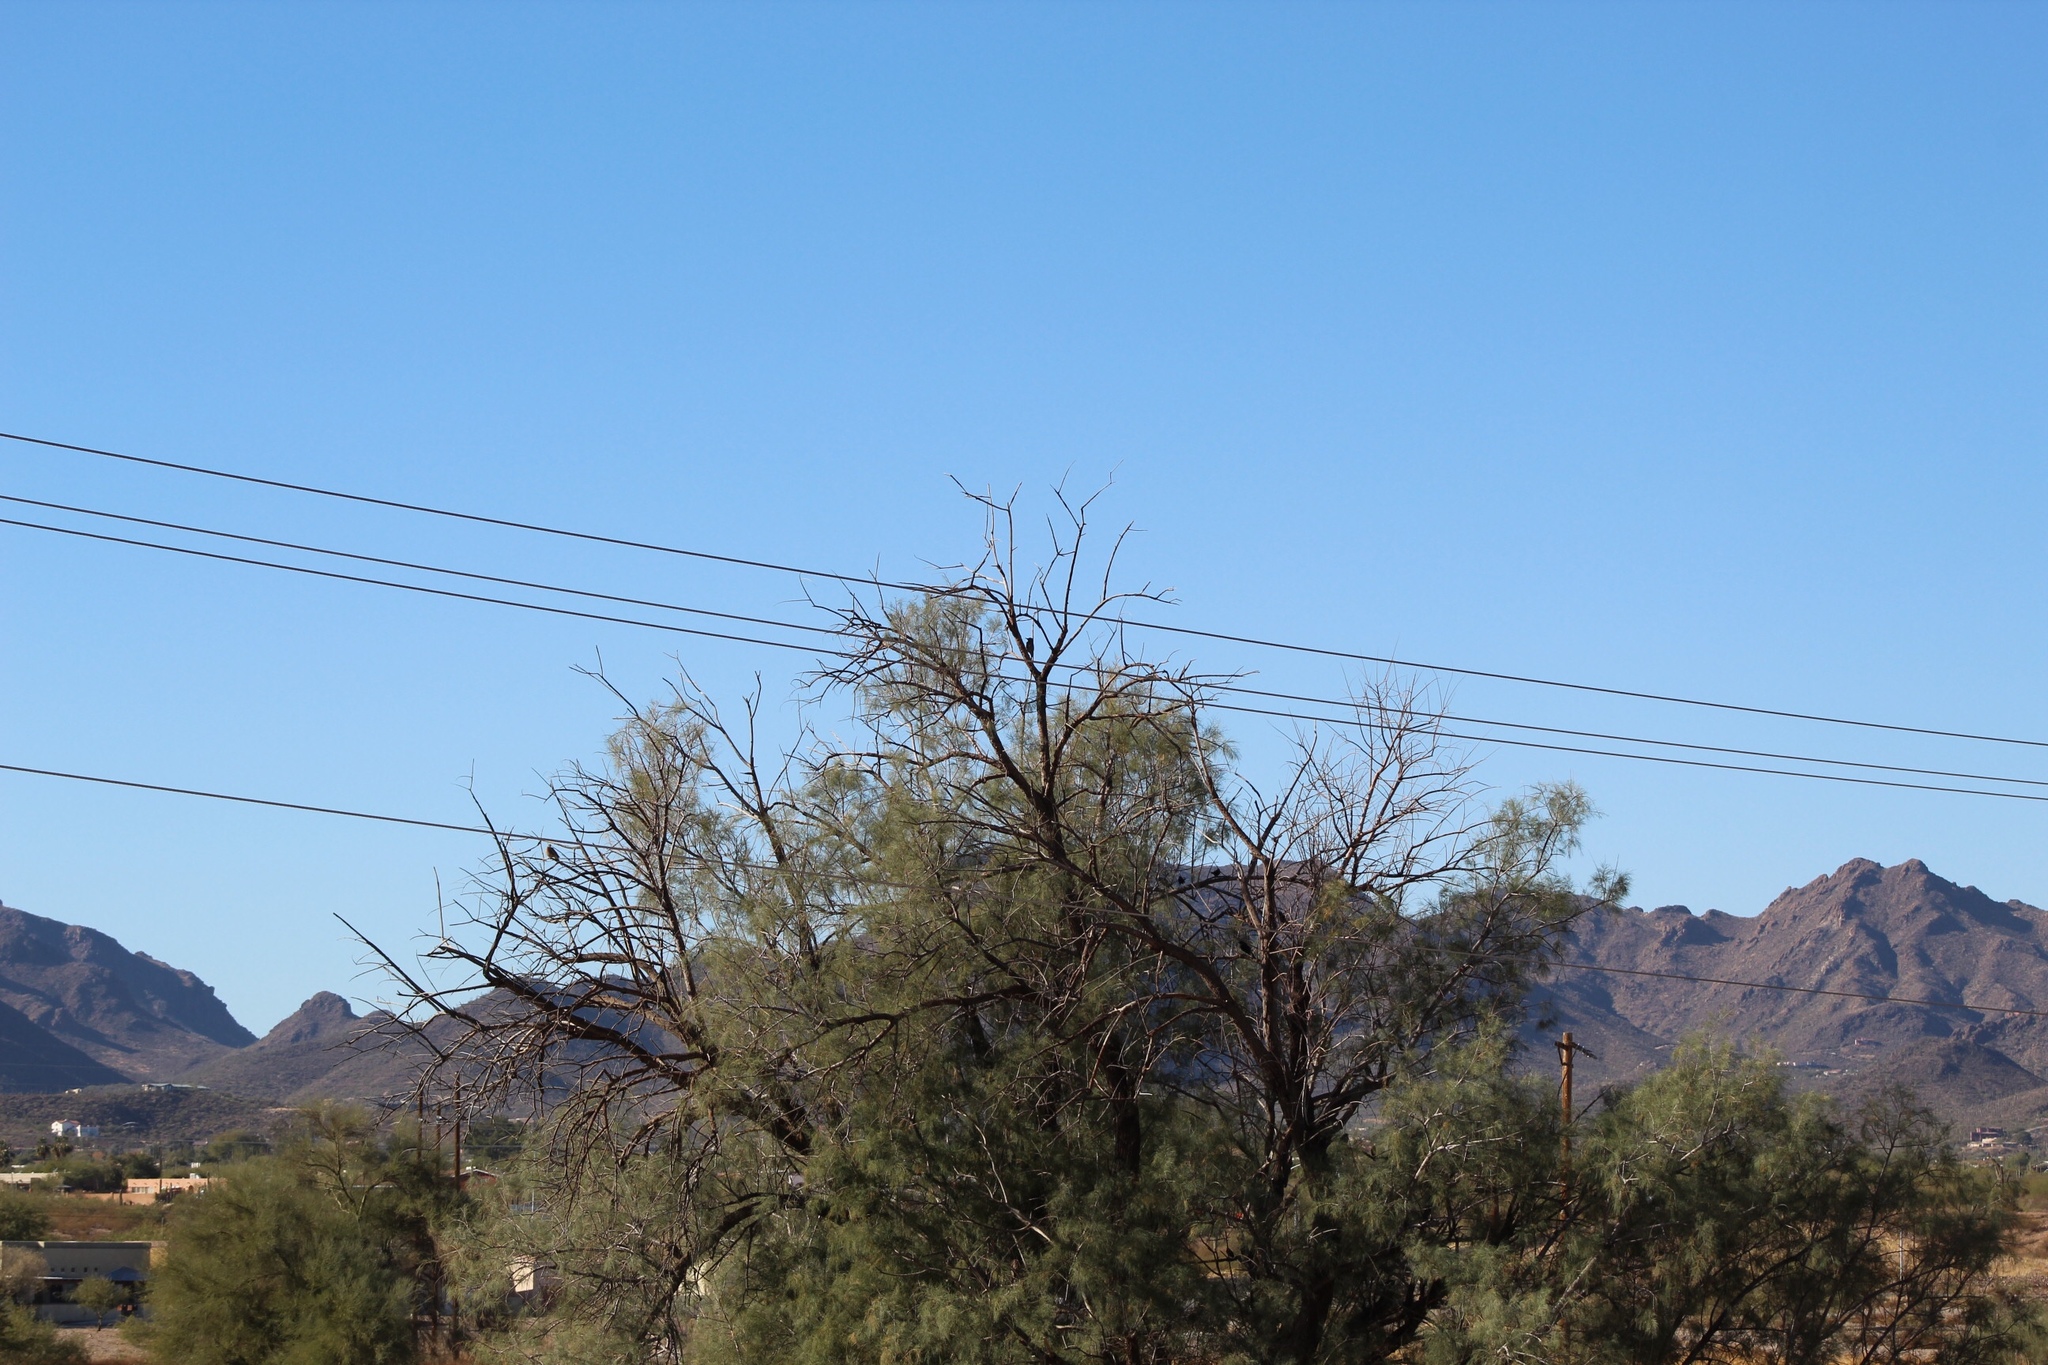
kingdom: Animalia
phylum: Chordata
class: Aves
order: Columbiformes
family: Columbidae
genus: Zenaida
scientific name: Zenaida macroura
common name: Mourning dove
